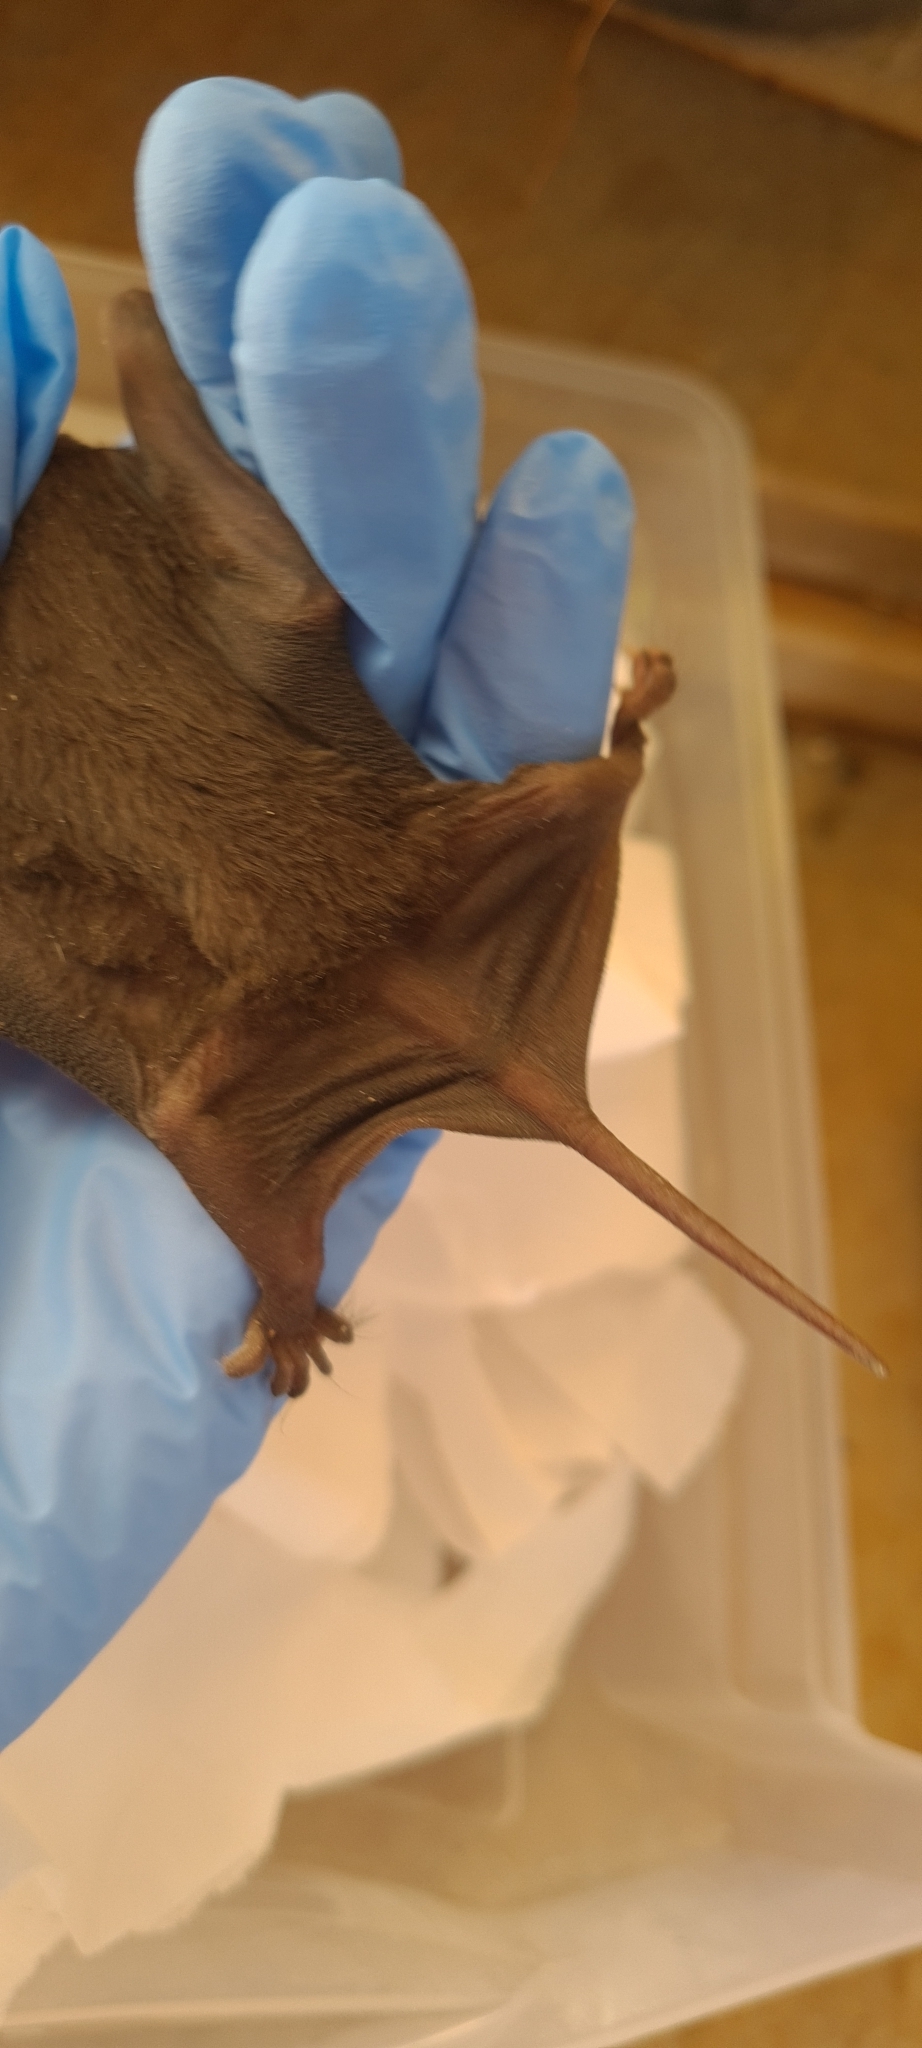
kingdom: Animalia
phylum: Chordata
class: Mammalia
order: Chiroptera
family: Molossidae
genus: Molossus
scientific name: Molossus molossus
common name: Pallas's mastiff bat
